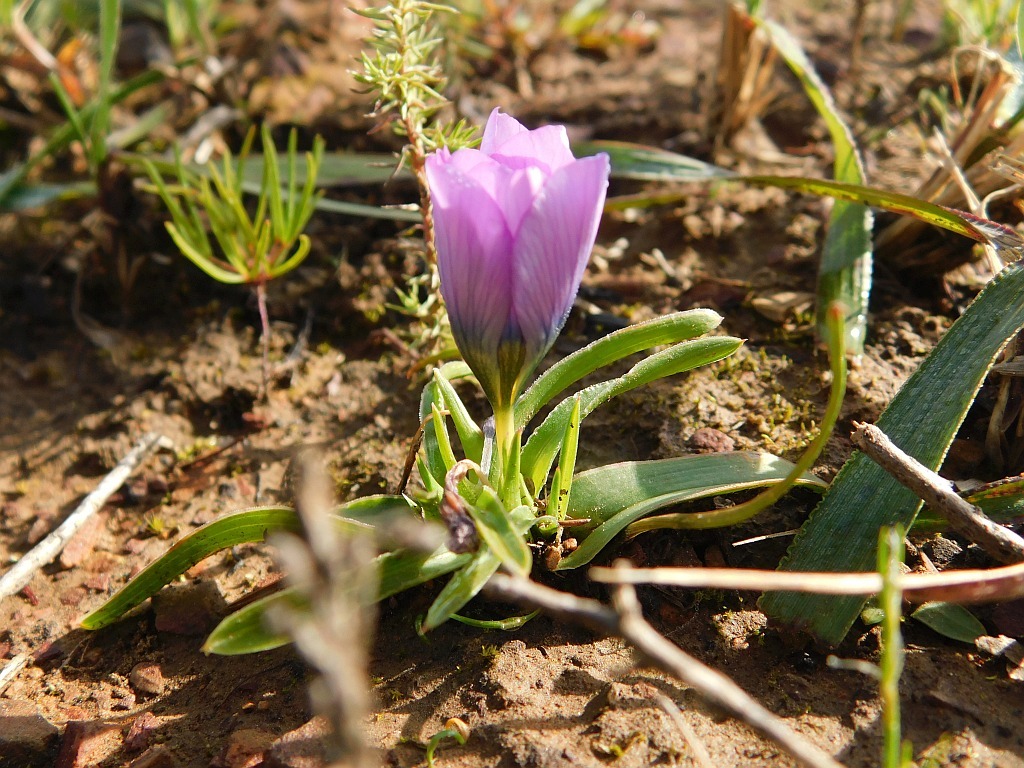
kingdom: Plantae
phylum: Tracheophyta
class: Liliopsida
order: Asparagales
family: Iridaceae
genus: Moraea
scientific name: Moraea barnardiella
